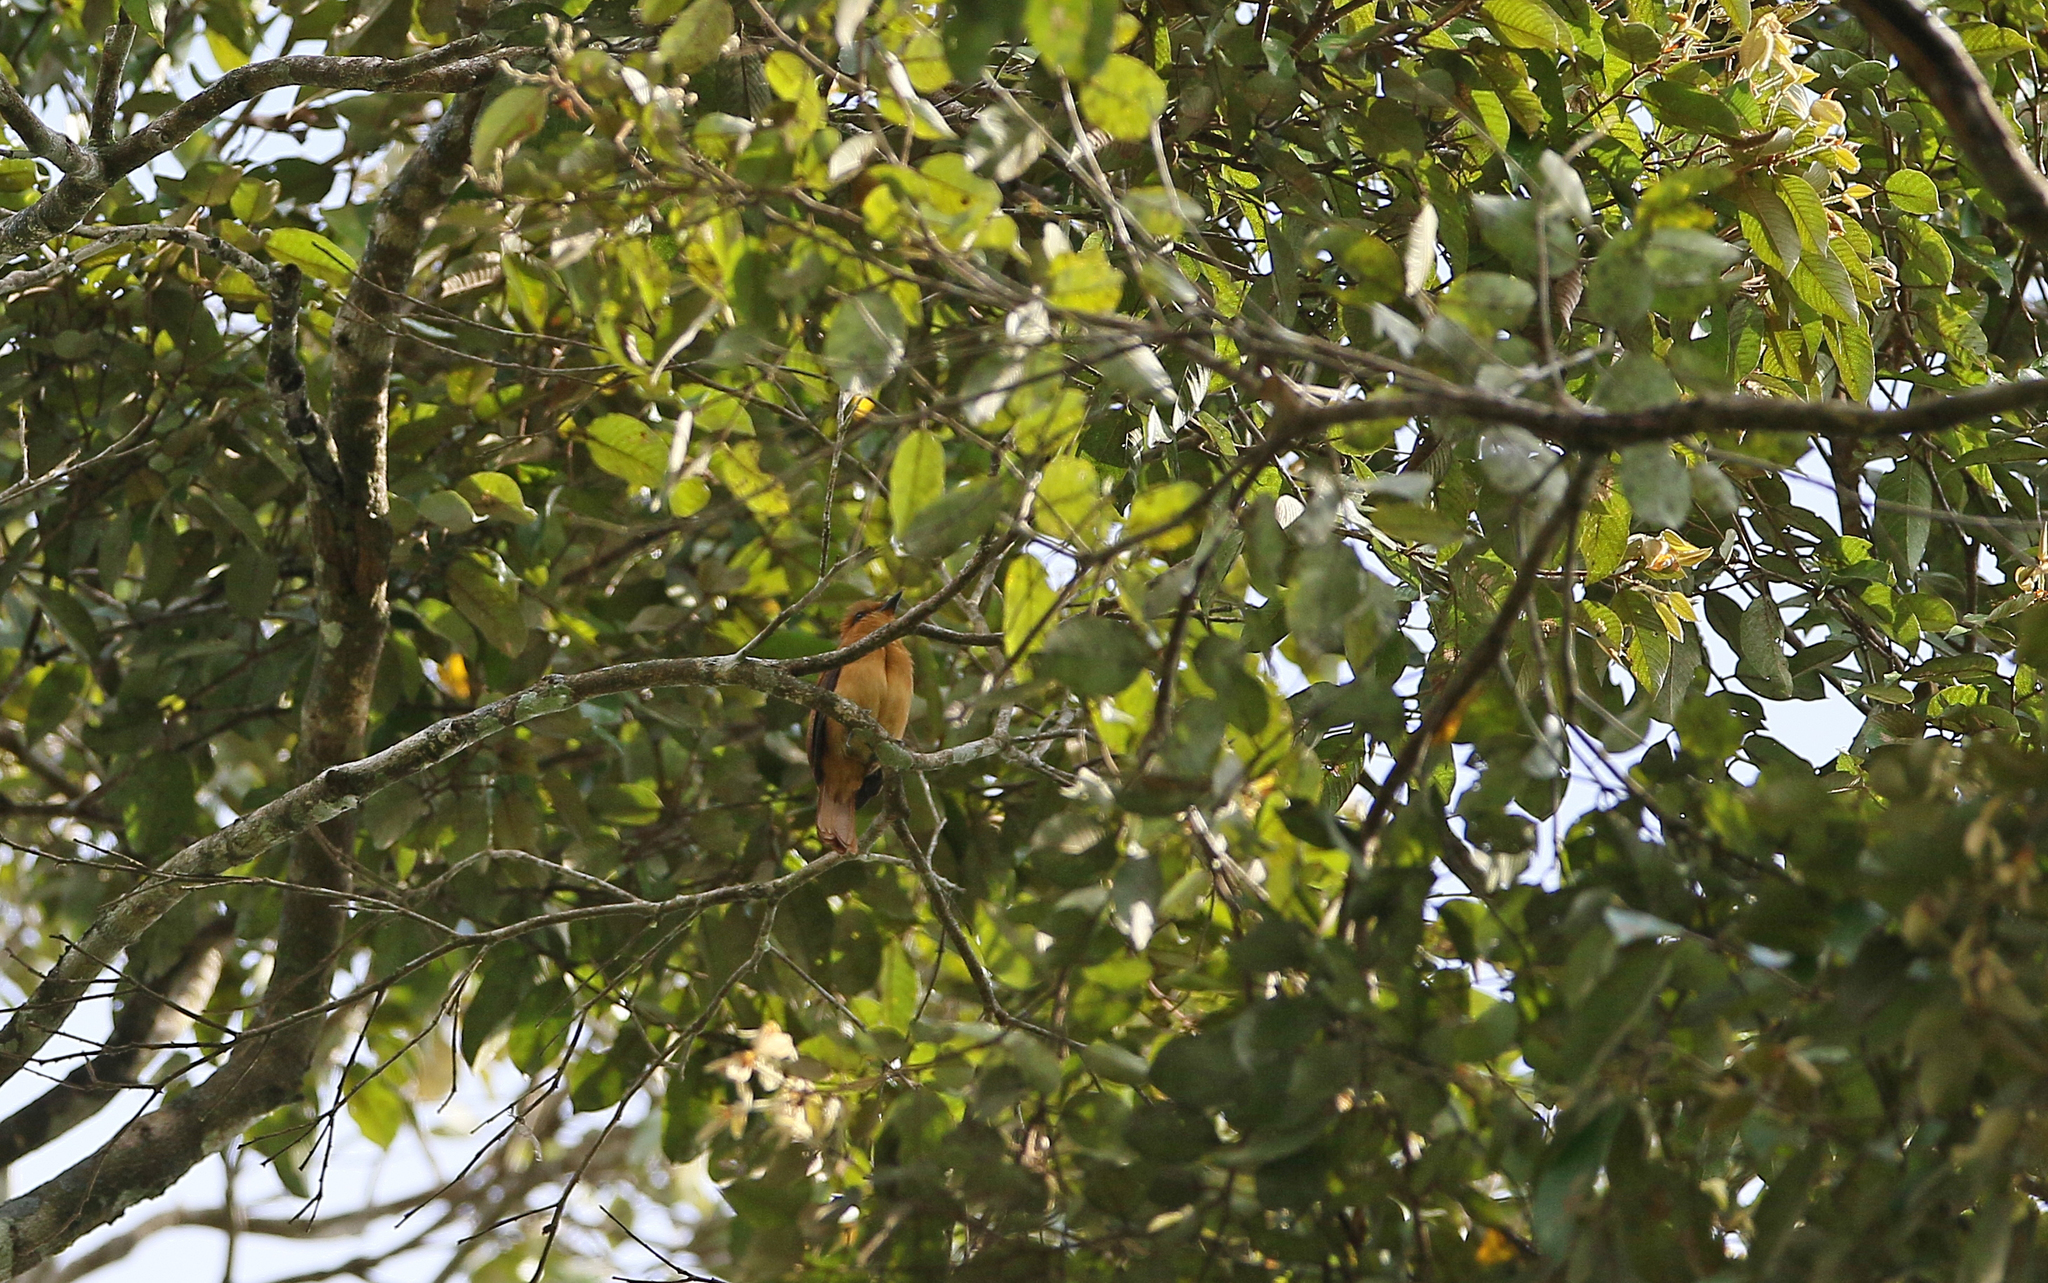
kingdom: Animalia
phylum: Chordata
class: Aves
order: Passeriformes
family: Tyrannidae
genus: Attila
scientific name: Attila cinnamomeus
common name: Cinnamon attila
